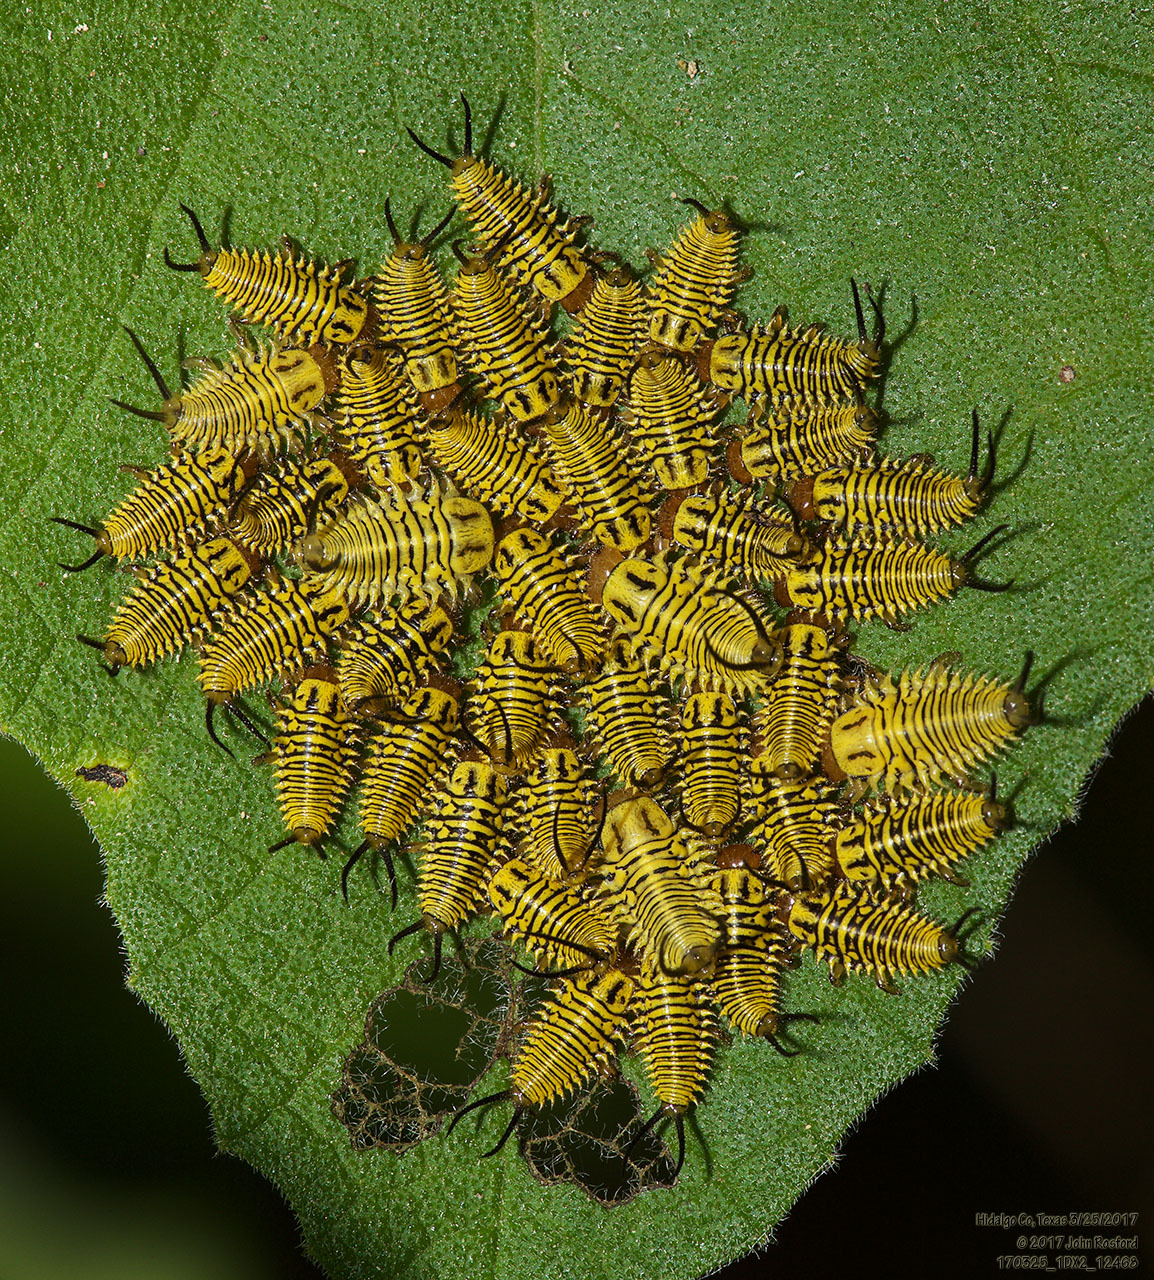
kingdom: Animalia
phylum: Arthropoda
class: Insecta
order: Coleoptera
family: Chrysomelidae
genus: Physonota
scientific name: Physonota alutacea
